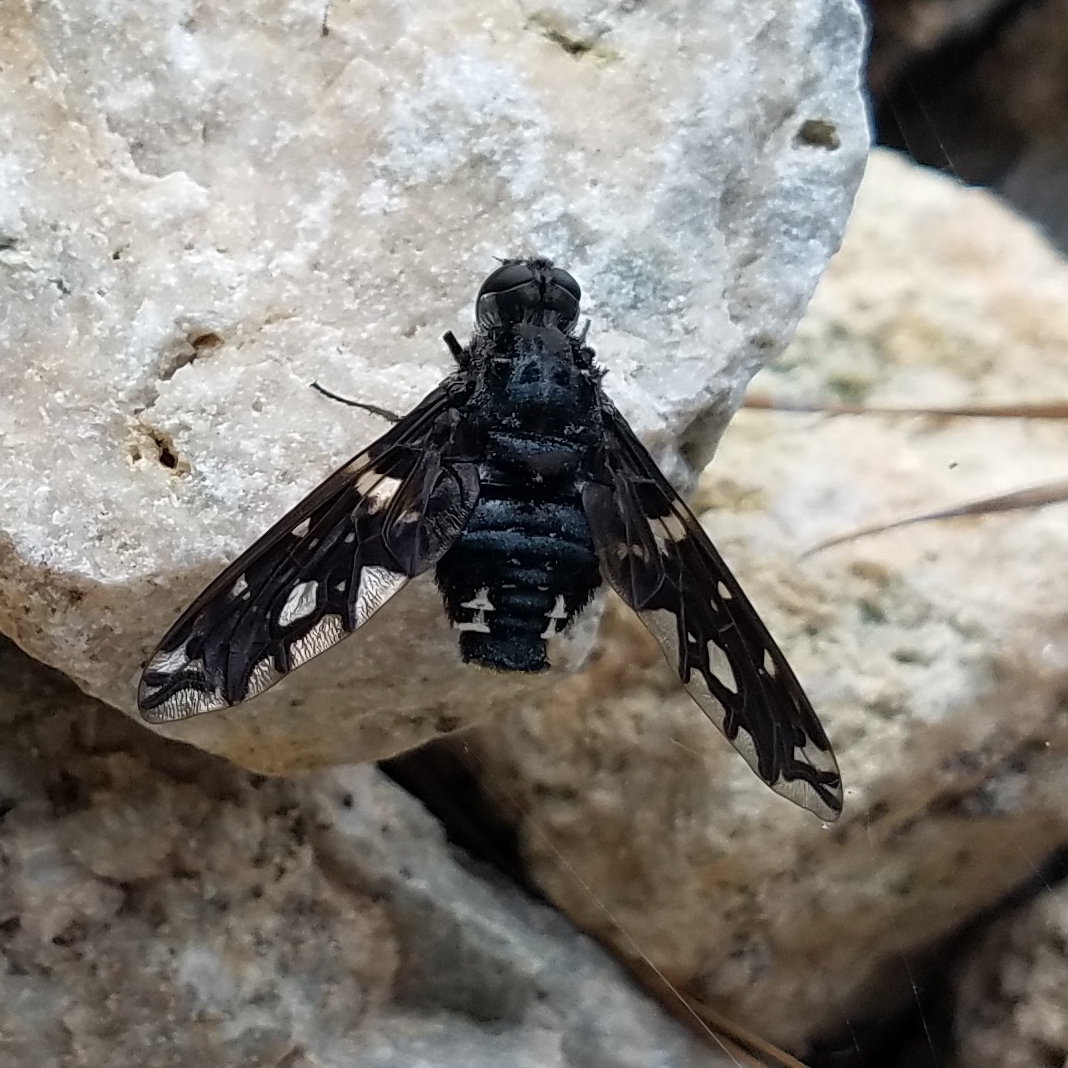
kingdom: Animalia
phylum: Arthropoda
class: Insecta
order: Diptera
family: Bombyliidae
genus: Xenox
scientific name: Xenox tigrinus
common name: Tiger bee fly
